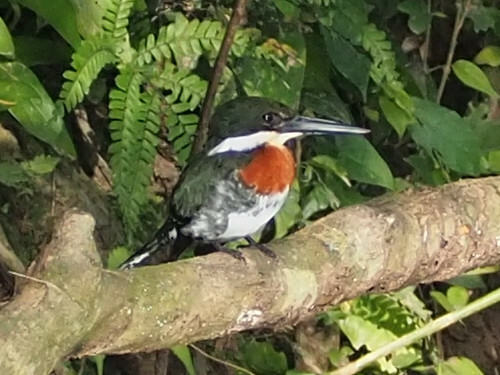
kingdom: Animalia
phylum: Chordata
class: Aves
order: Coraciiformes
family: Alcedinidae
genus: Chloroceryle
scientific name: Chloroceryle americana
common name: Green kingfisher
